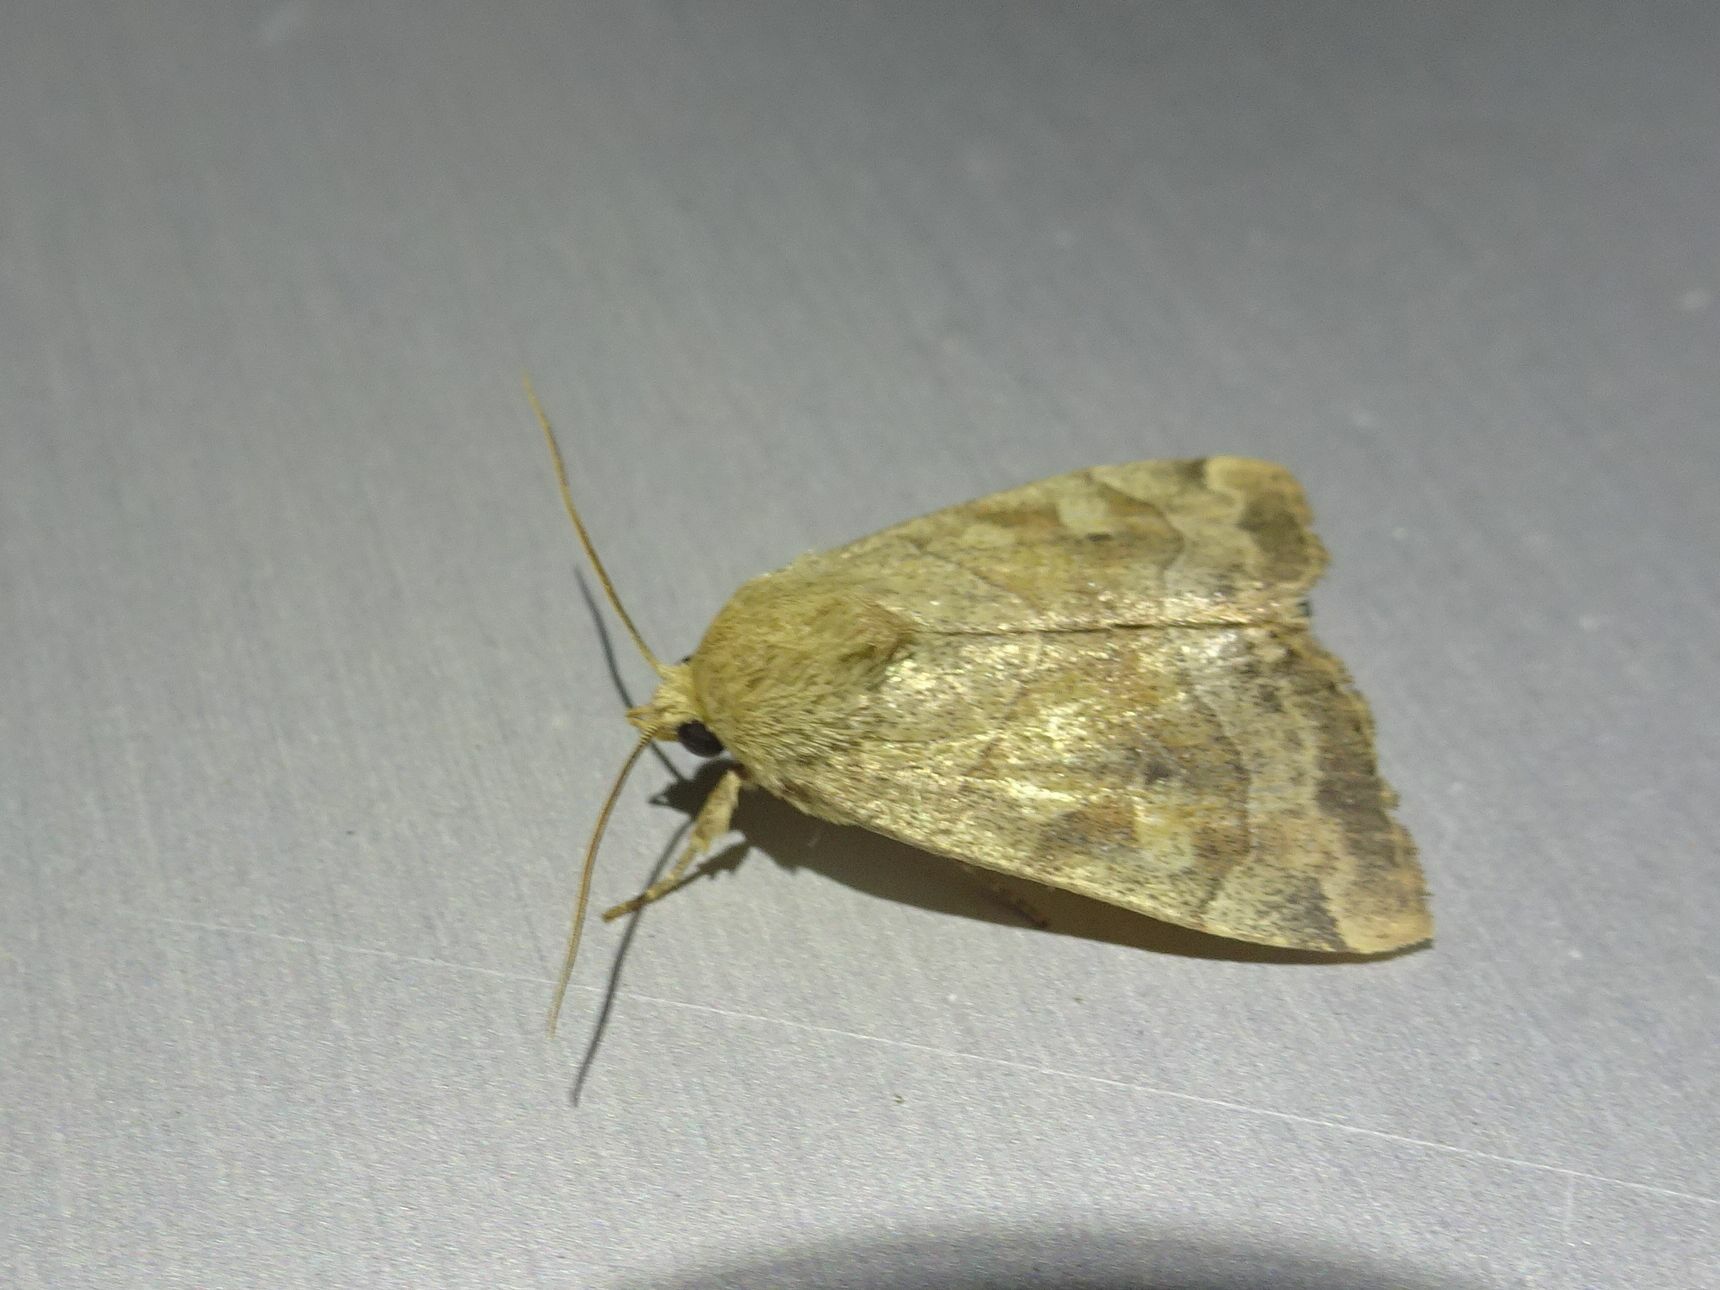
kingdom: Animalia
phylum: Arthropoda
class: Insecta
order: Lepidoptera
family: Noctuidae
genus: Cosmia
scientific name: Cosmia trapezina
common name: Dun-bar
